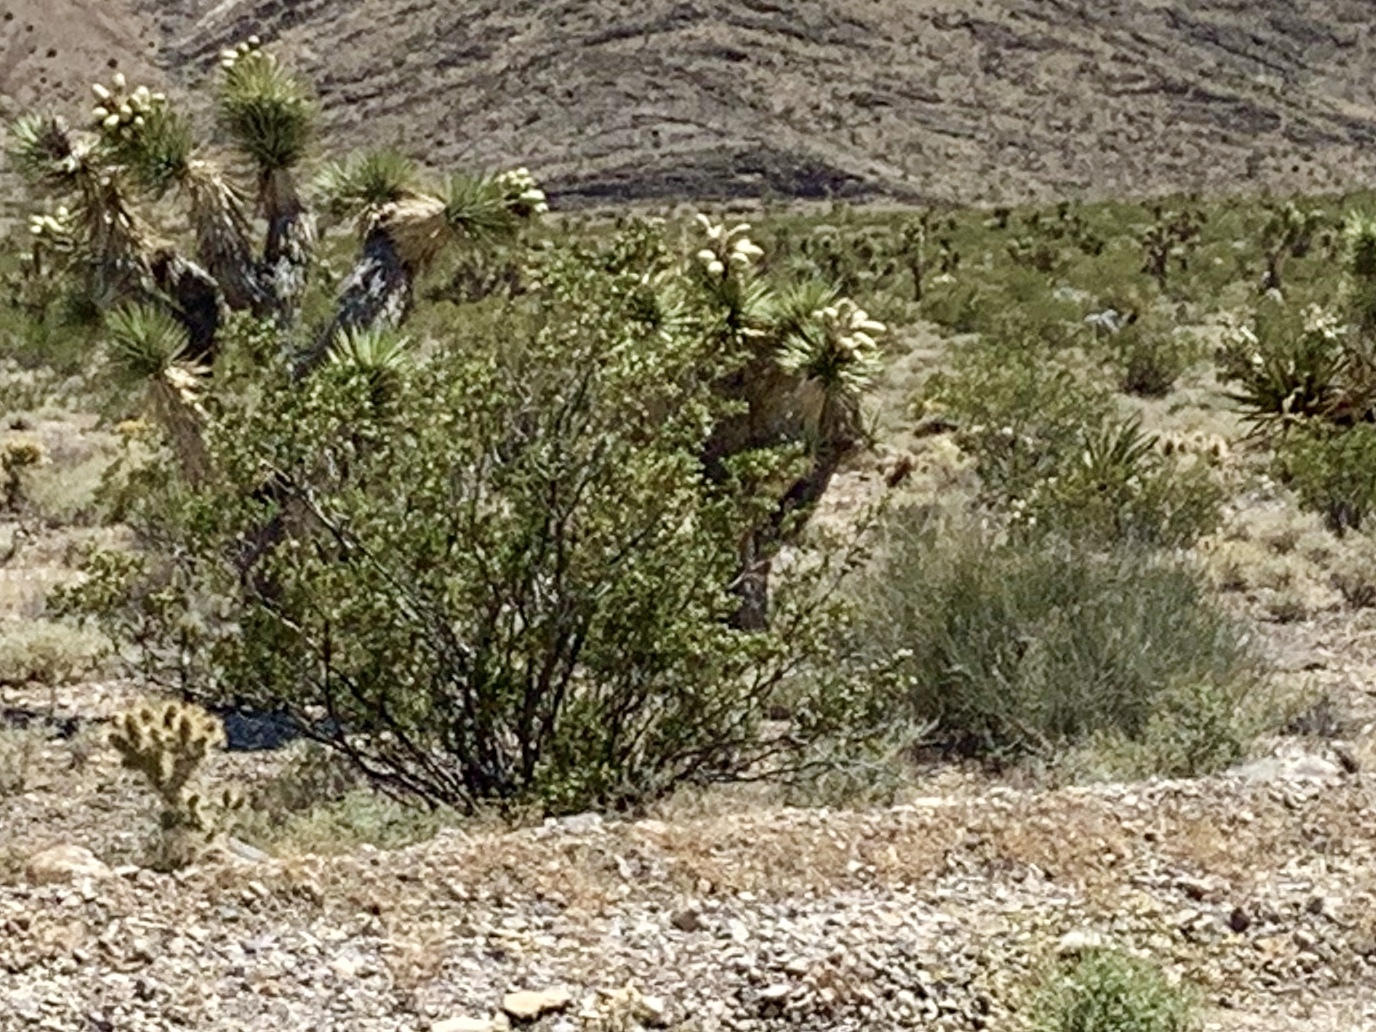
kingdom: Plantae
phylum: Tracheophyta
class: Magnoliopsida
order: Zygophyllales
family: Zygophyllaceae
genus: Larrea
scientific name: Larrea tridentata
